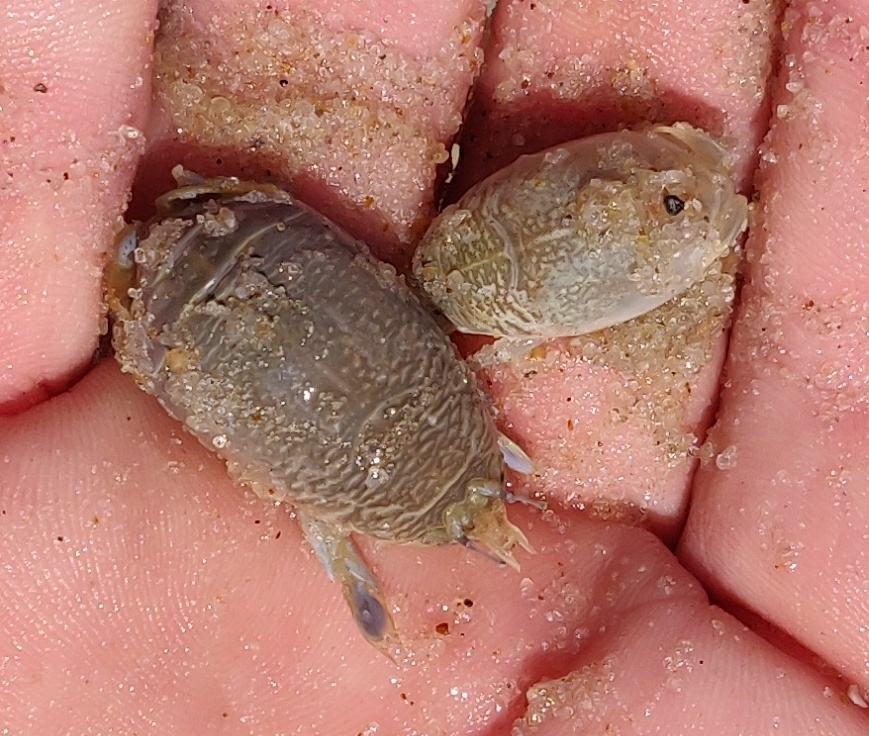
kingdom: Animalia
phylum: Arthropoda
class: Malacostraca
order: Decapoda
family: Hippidae
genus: Emerita
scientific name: Emerita talpoida
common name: Atlantic sand crab
